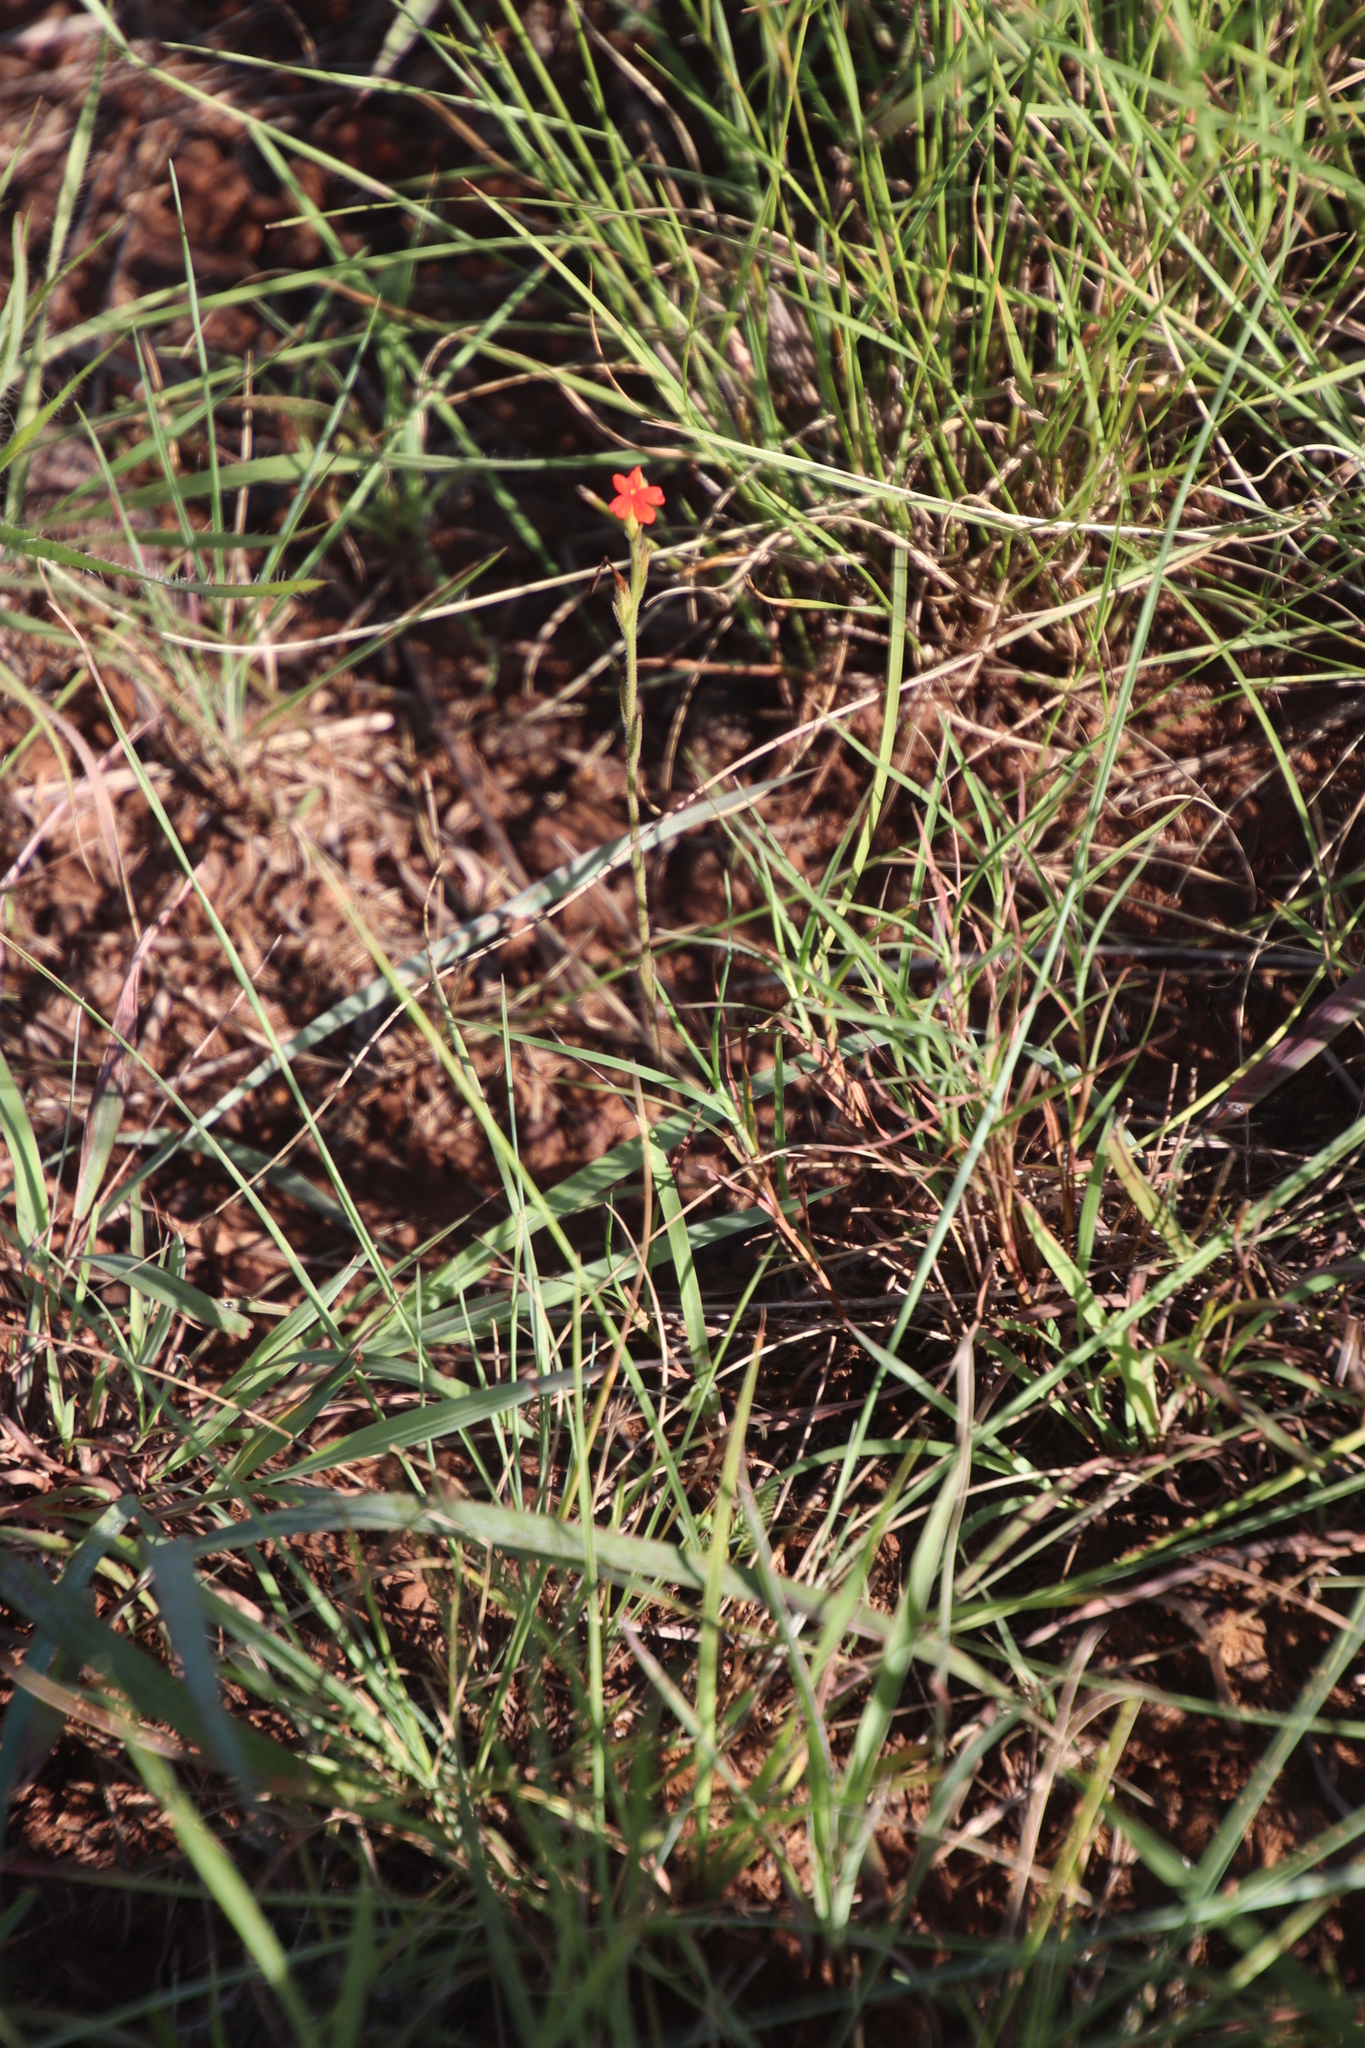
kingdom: Plantae
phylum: Tracheophyta
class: Magnoliopsida
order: Lamiales
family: Orobanchaceae
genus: Striga
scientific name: Striga asiatica
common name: Asiatic witchweed
